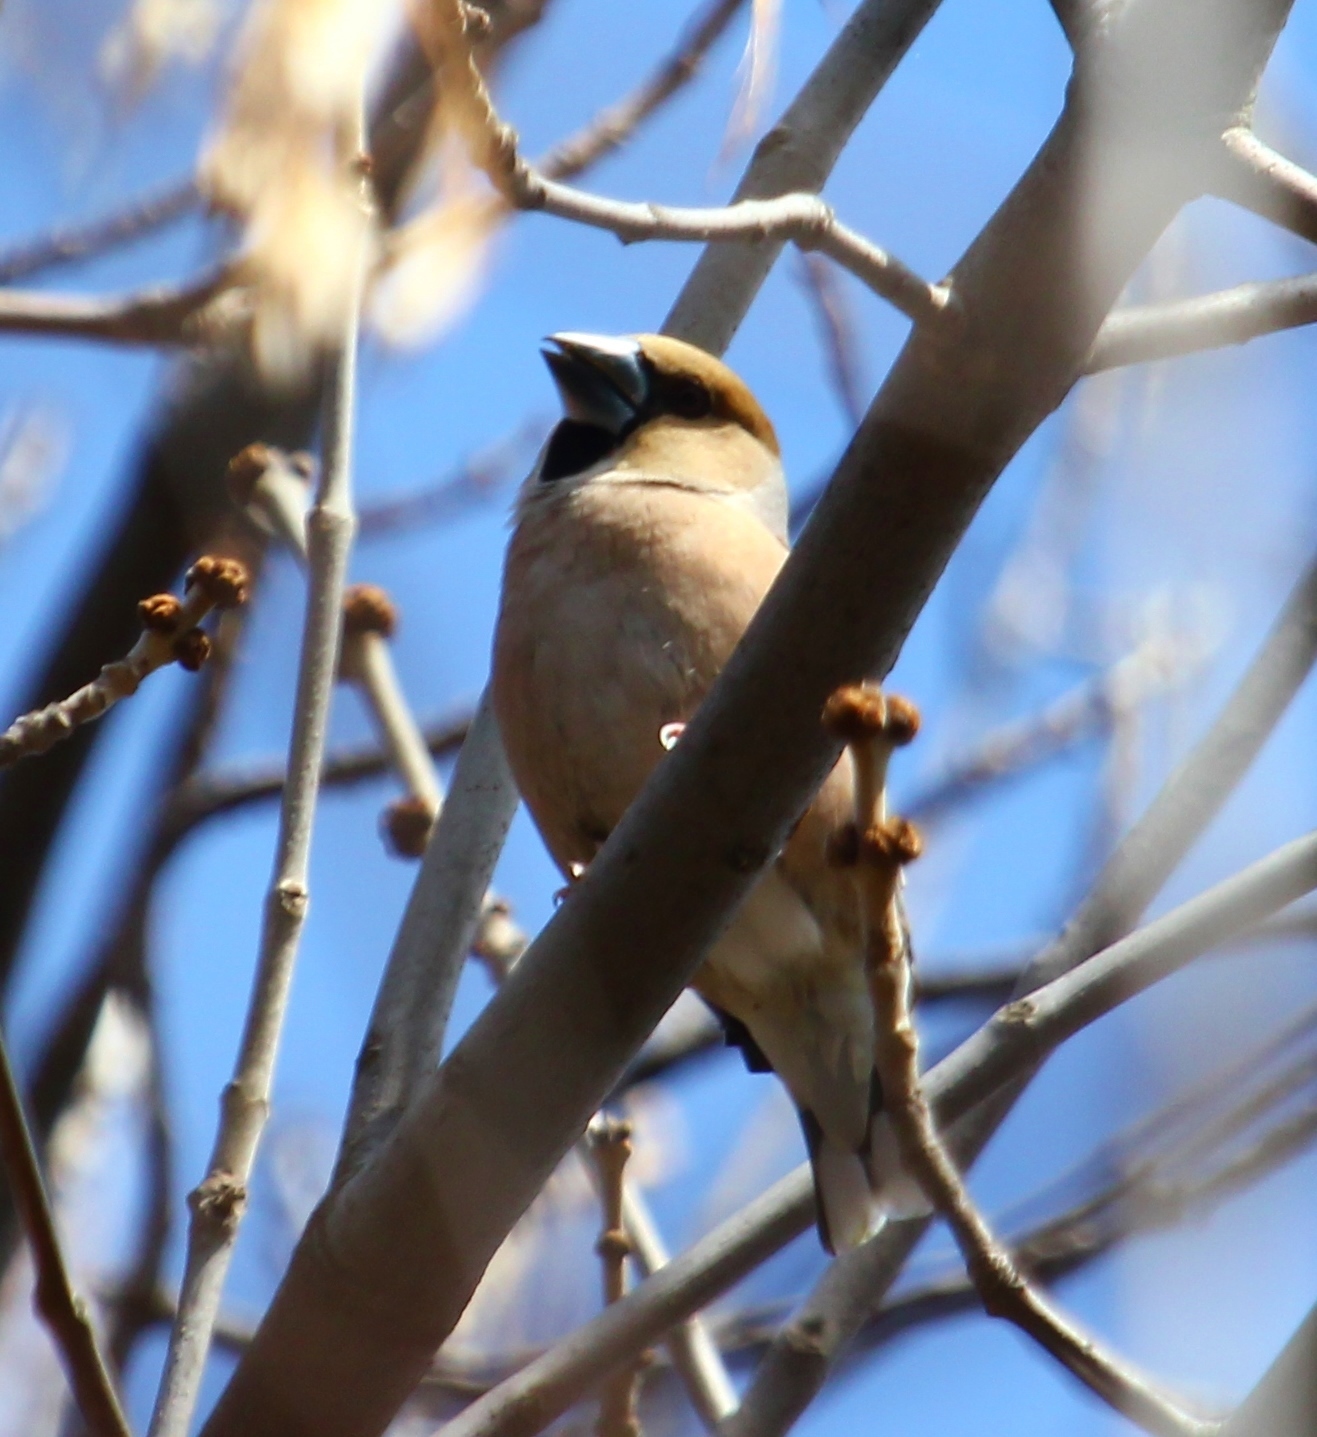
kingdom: Animalia
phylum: Chordata
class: Aves
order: Passeriformes
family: Fringillidae
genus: Coccothraustes
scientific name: Coccothraustes coccothraustes
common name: Hawfinch
